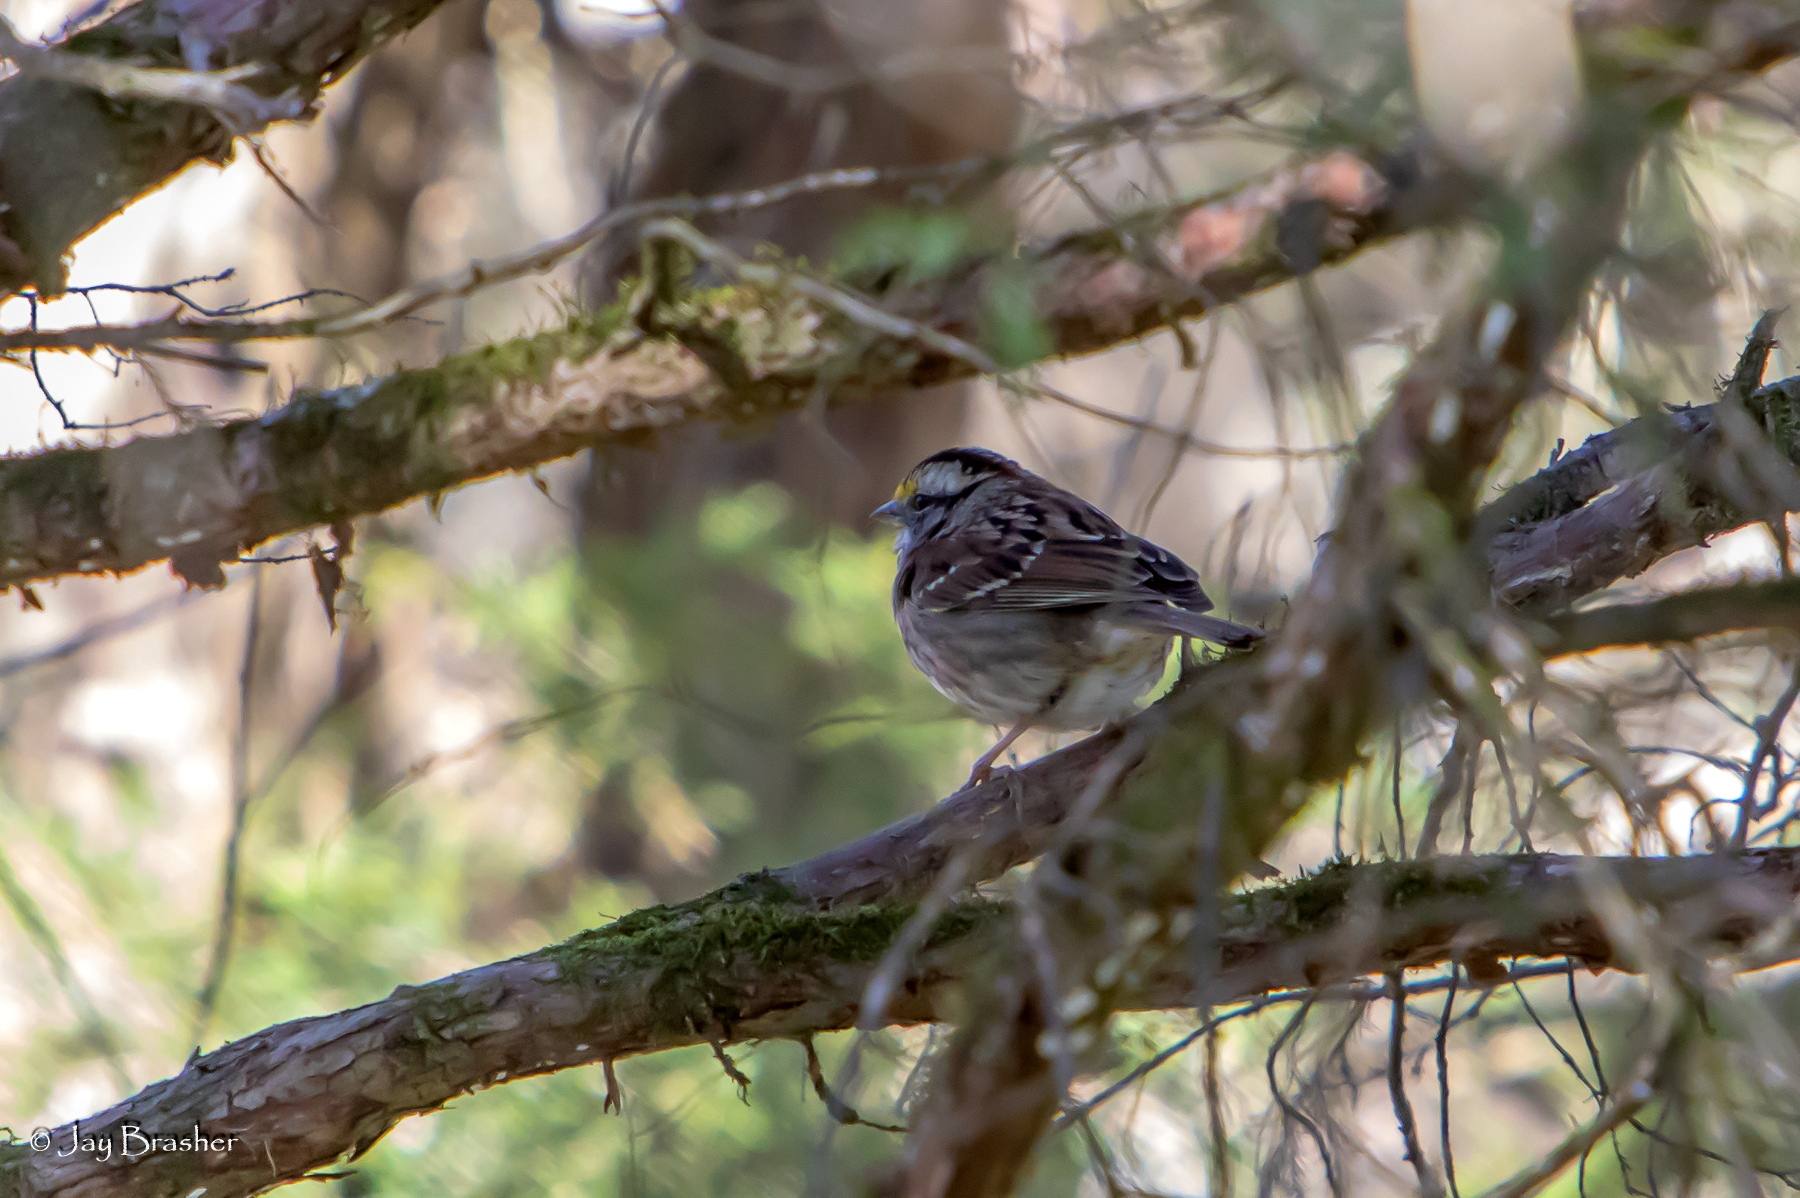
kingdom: Animalia
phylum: Chordata
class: Aves
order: Passeriformes
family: Passerellidae
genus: Zonotrichia
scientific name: Zonotrichia albicollis
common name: White-throated sparrow
